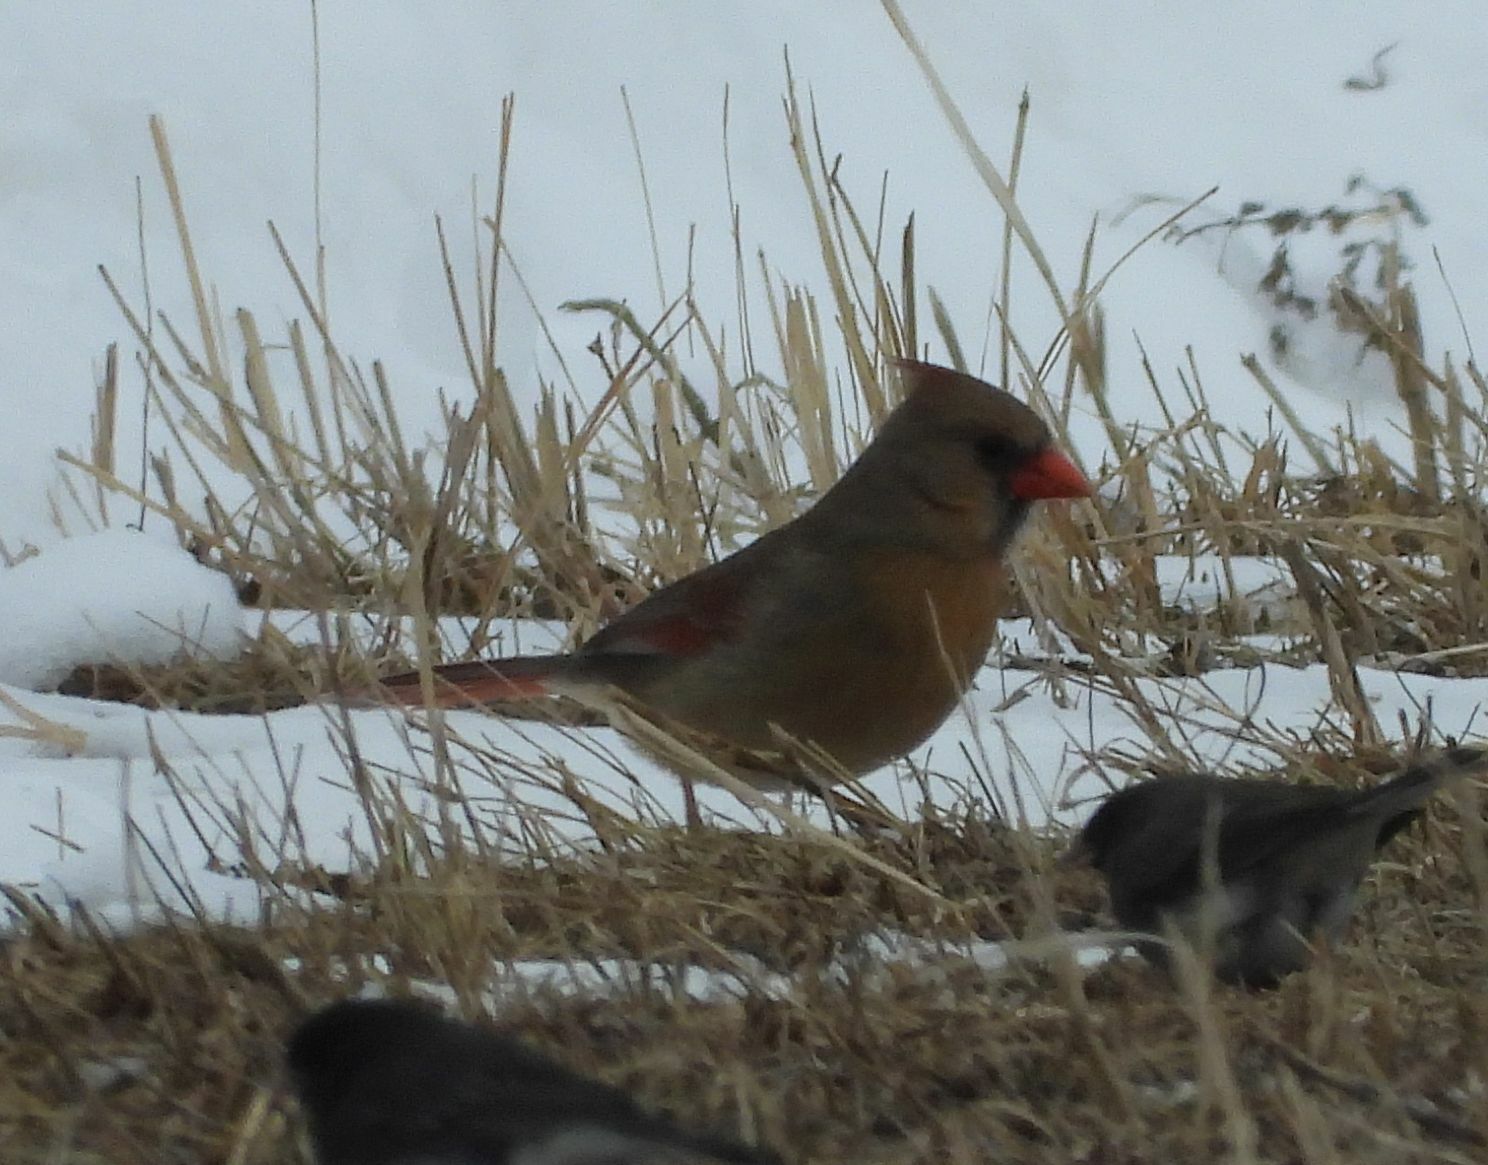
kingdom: Animalia
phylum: Chordata
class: Aves
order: Passeriformes
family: Cardinalidae
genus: Cardinalis
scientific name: Cardinalis cardinalis
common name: Northern cardinal
